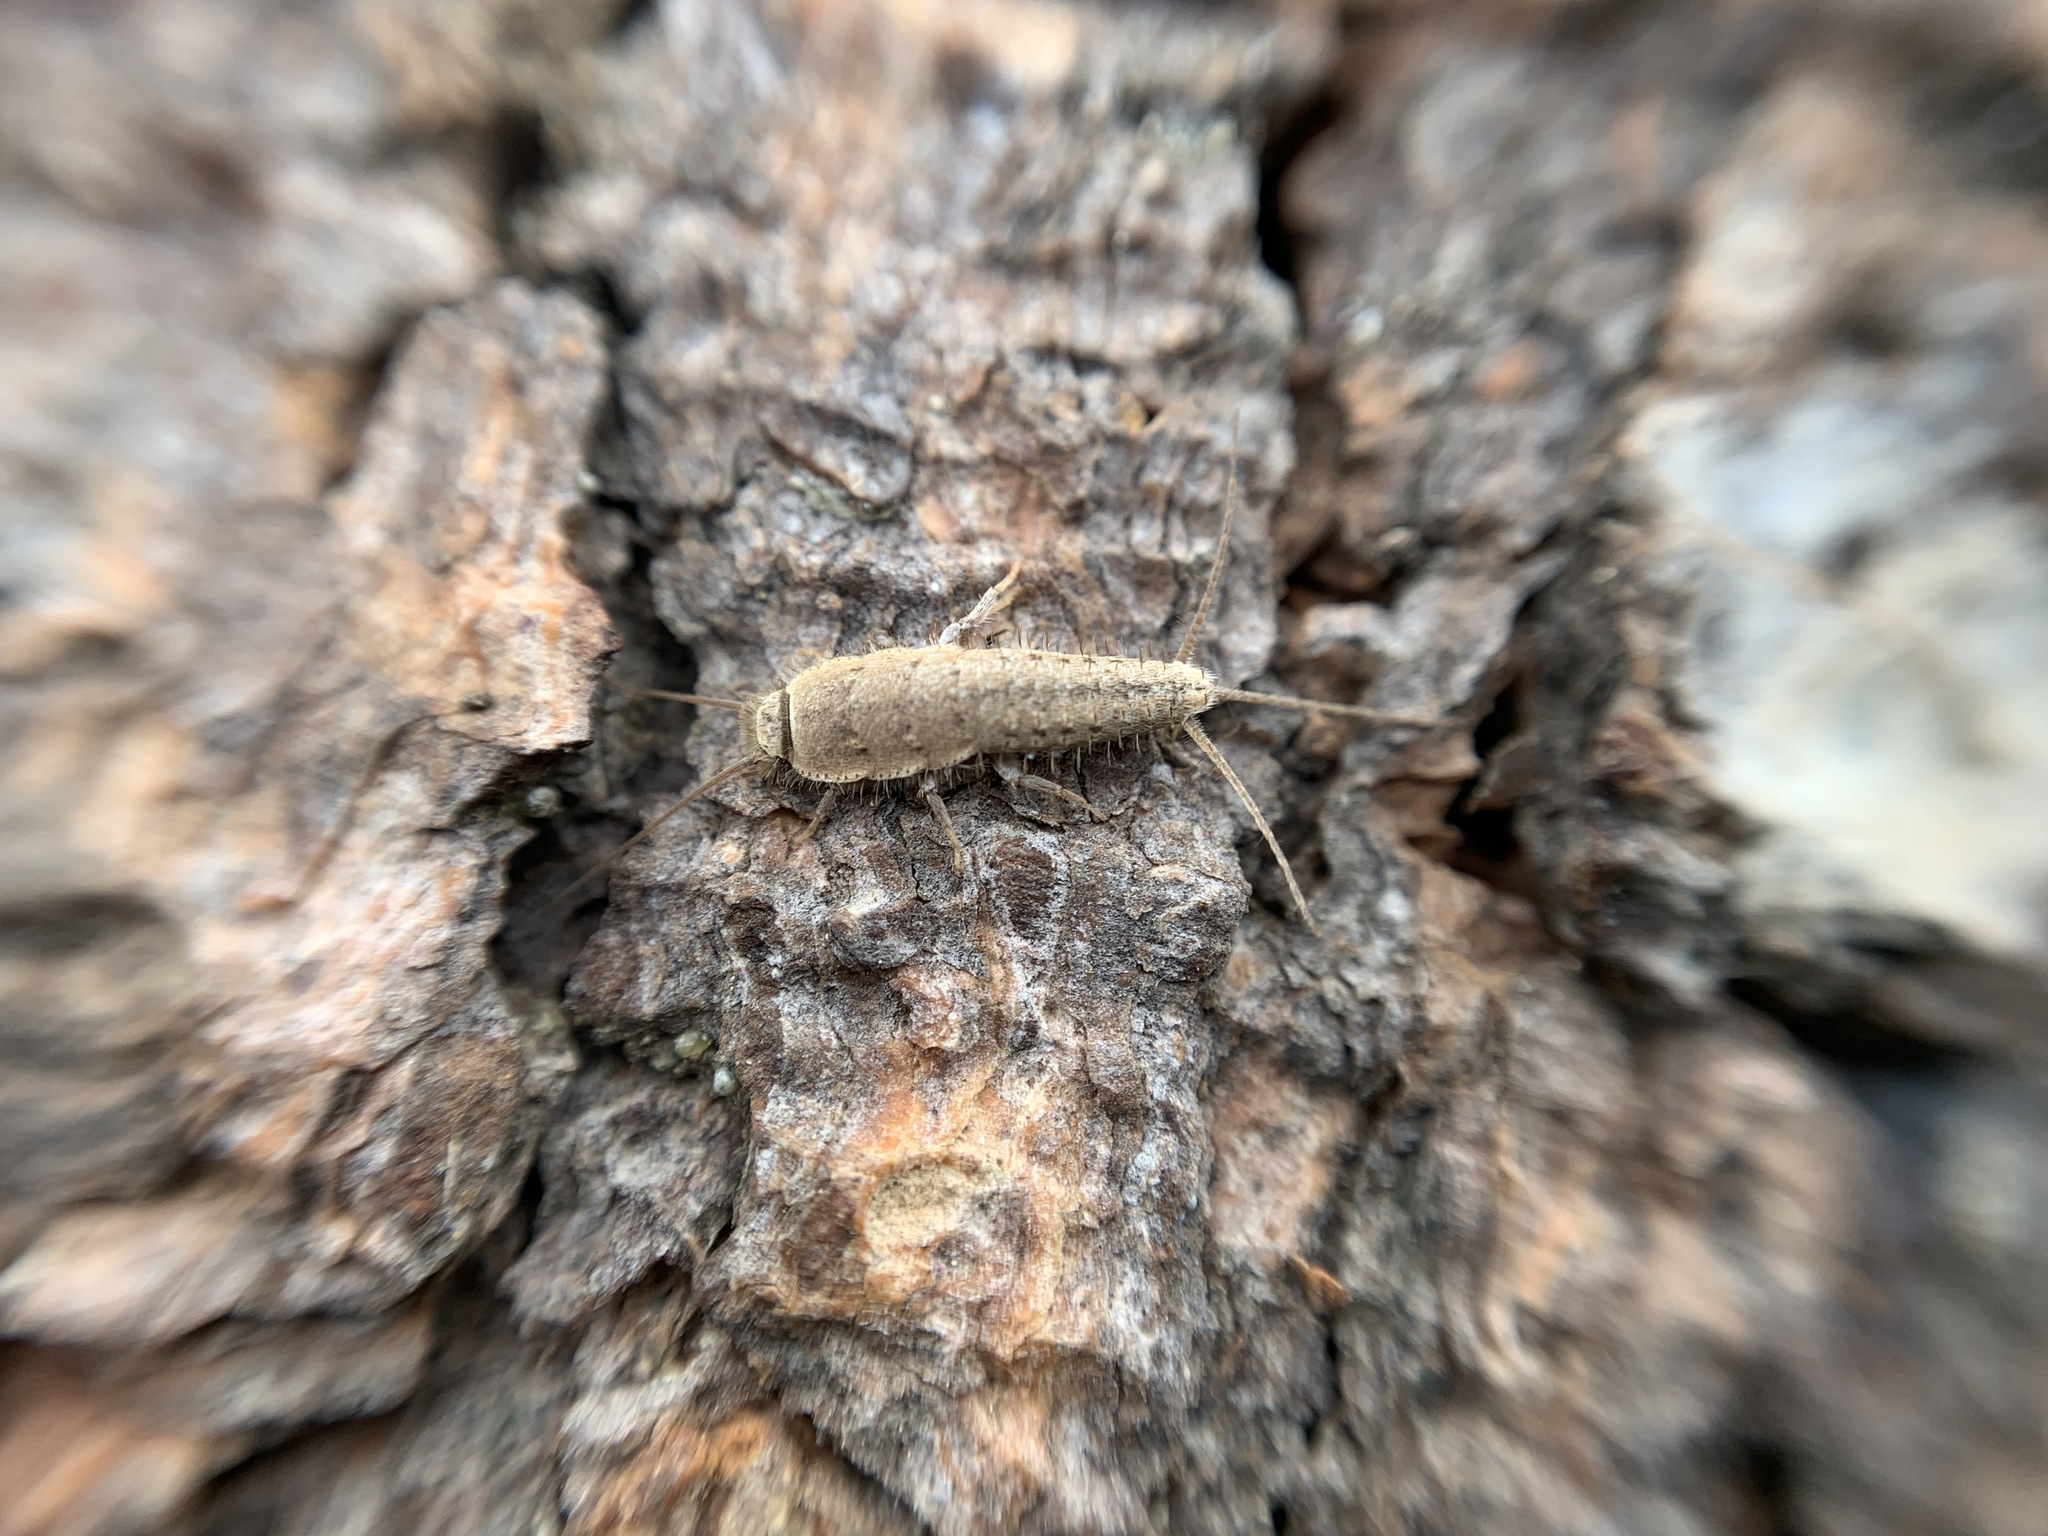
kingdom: Animalia
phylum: Arthropoda
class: Insecta
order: Zygentoma
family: Lepismatidae
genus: Ctenolepisma
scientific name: Ctenolepisma ciliata
